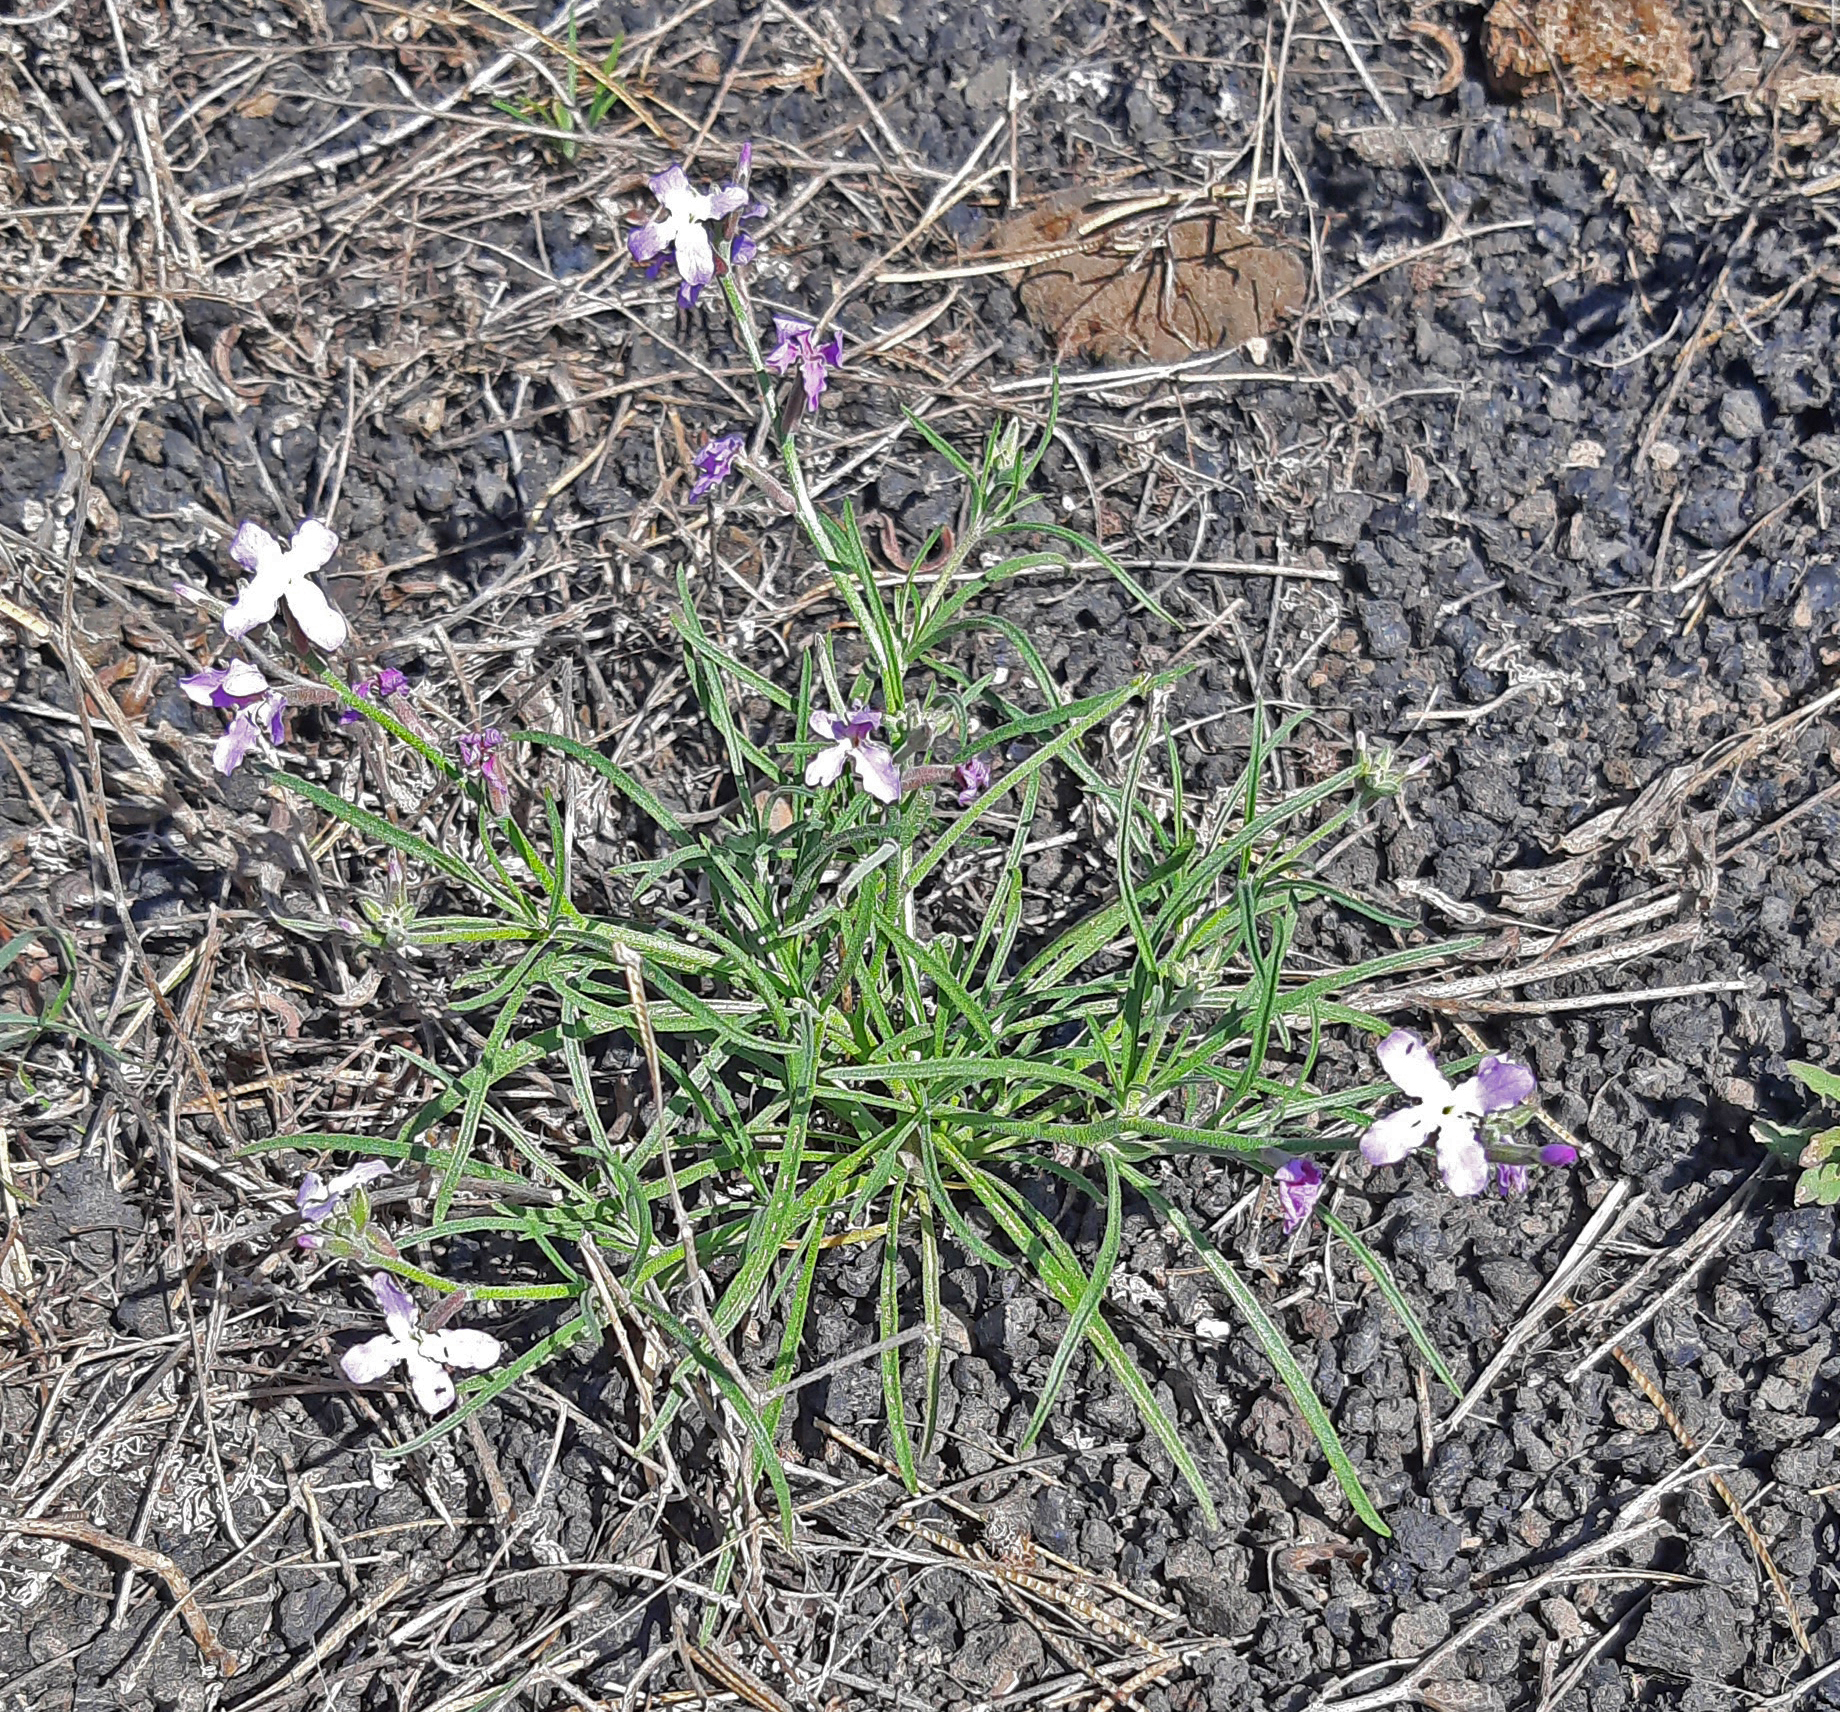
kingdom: Plantae
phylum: Tracheophyta
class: Magnoliopsida
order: Brassicales
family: Brassicaceae
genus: Matthiola
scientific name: Matthiola bolleana
